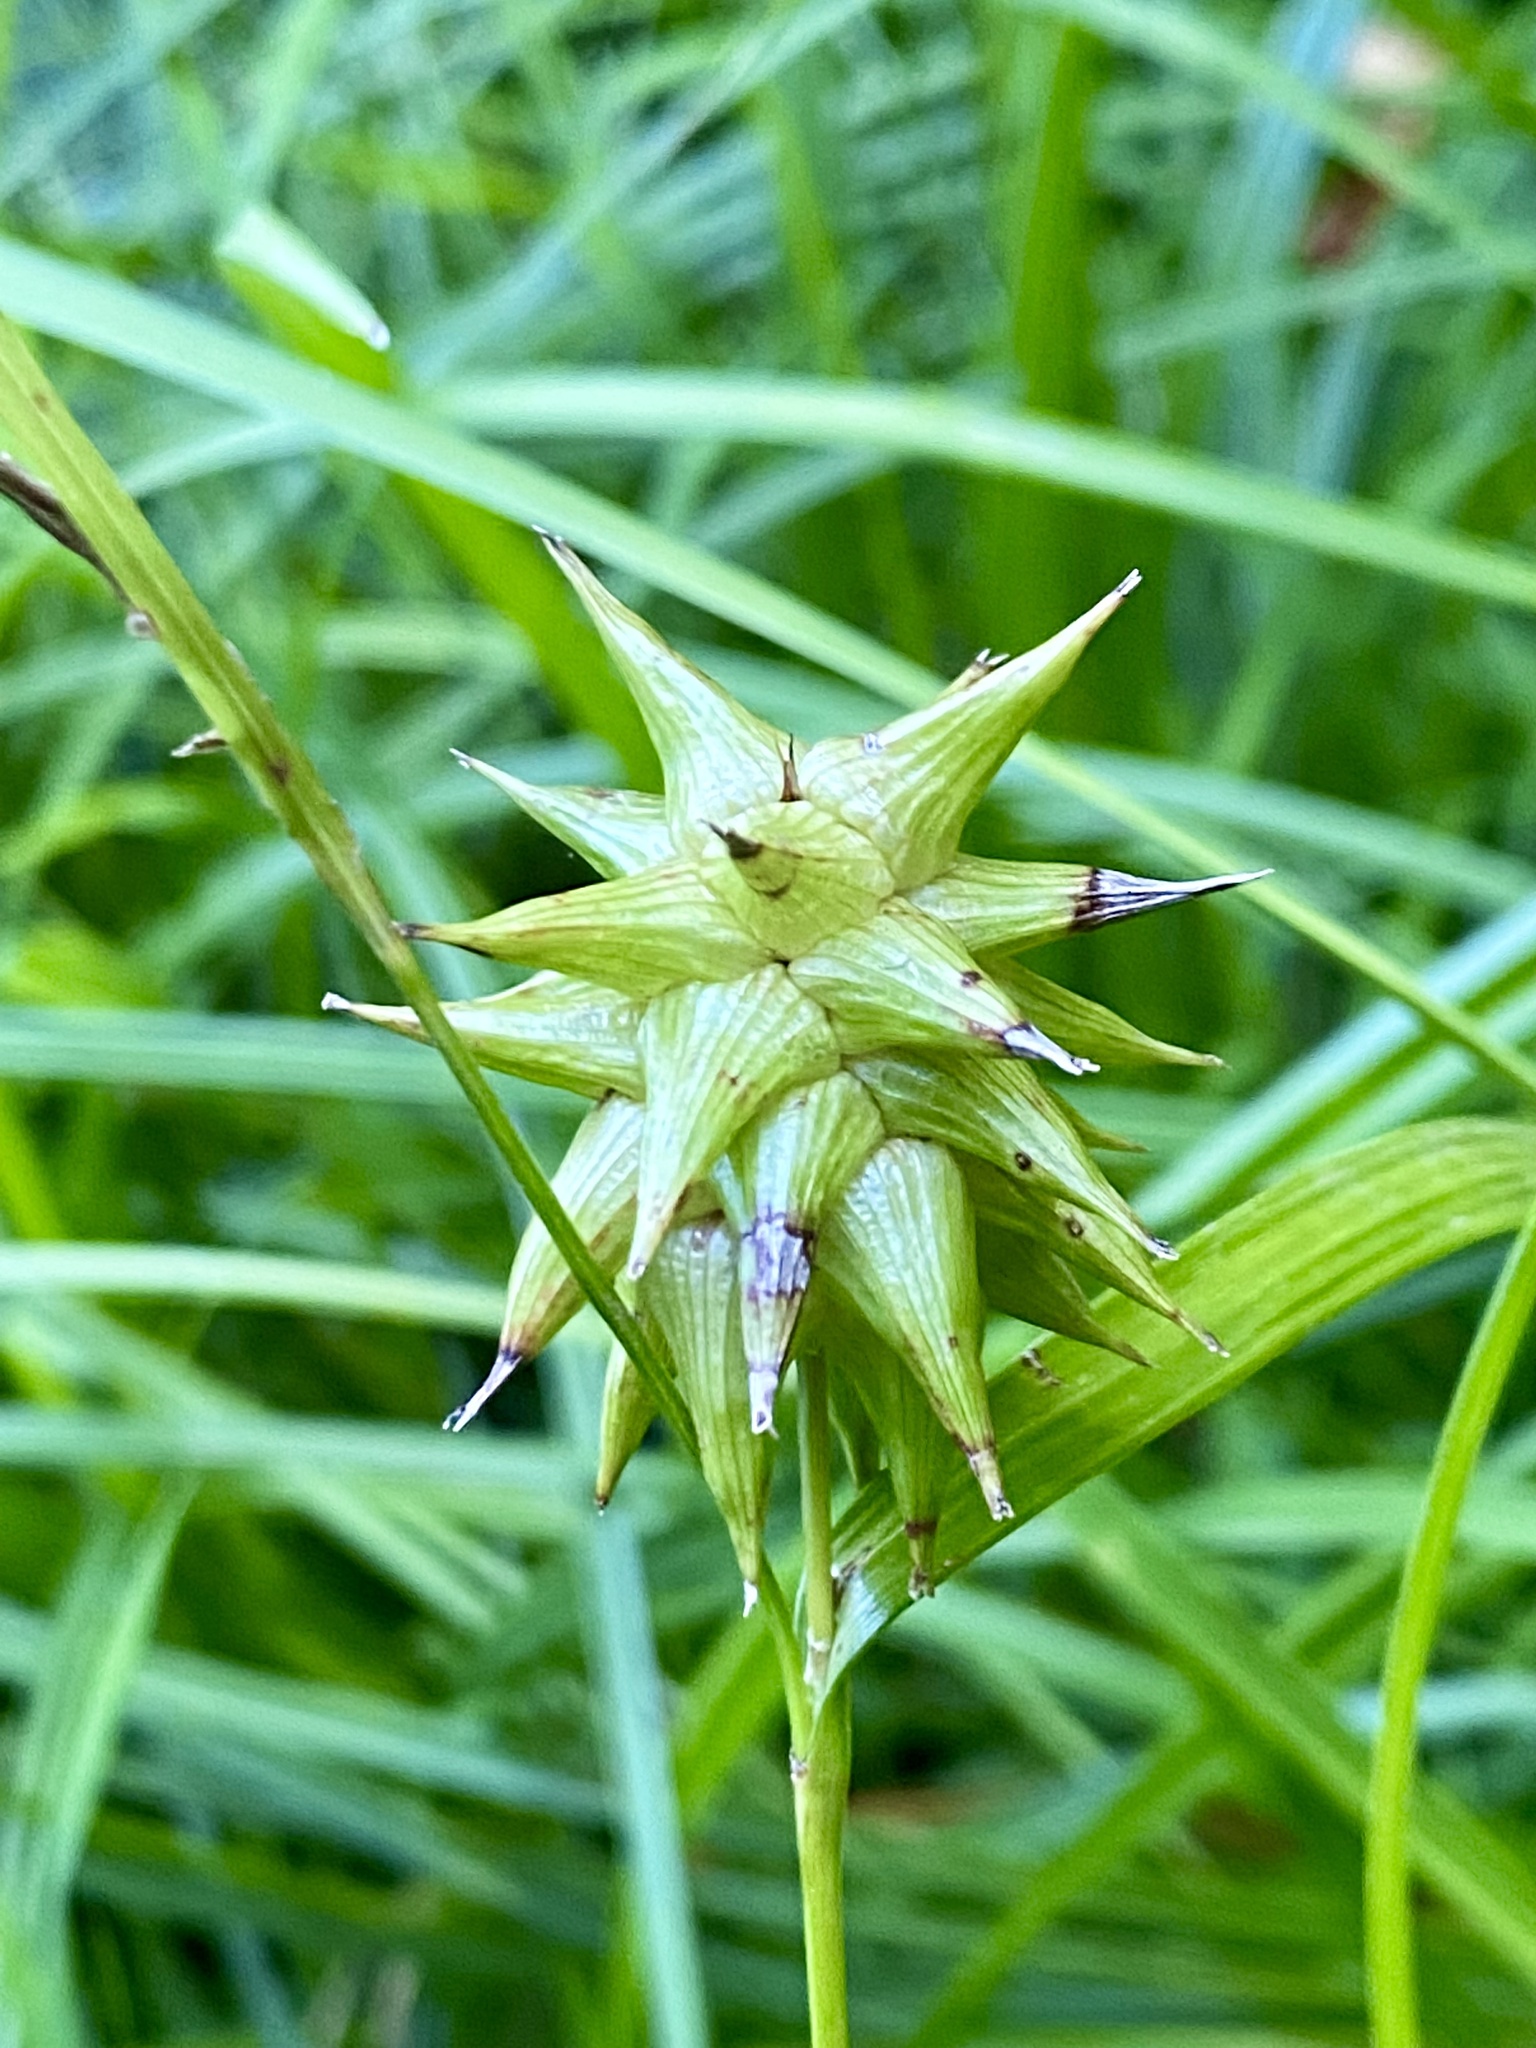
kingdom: Plantae
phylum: Tracheophyta
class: Liliopsida
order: Poales
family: Cyperaceae
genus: Carex
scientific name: Carex grayi
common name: Asa gray's sedge
